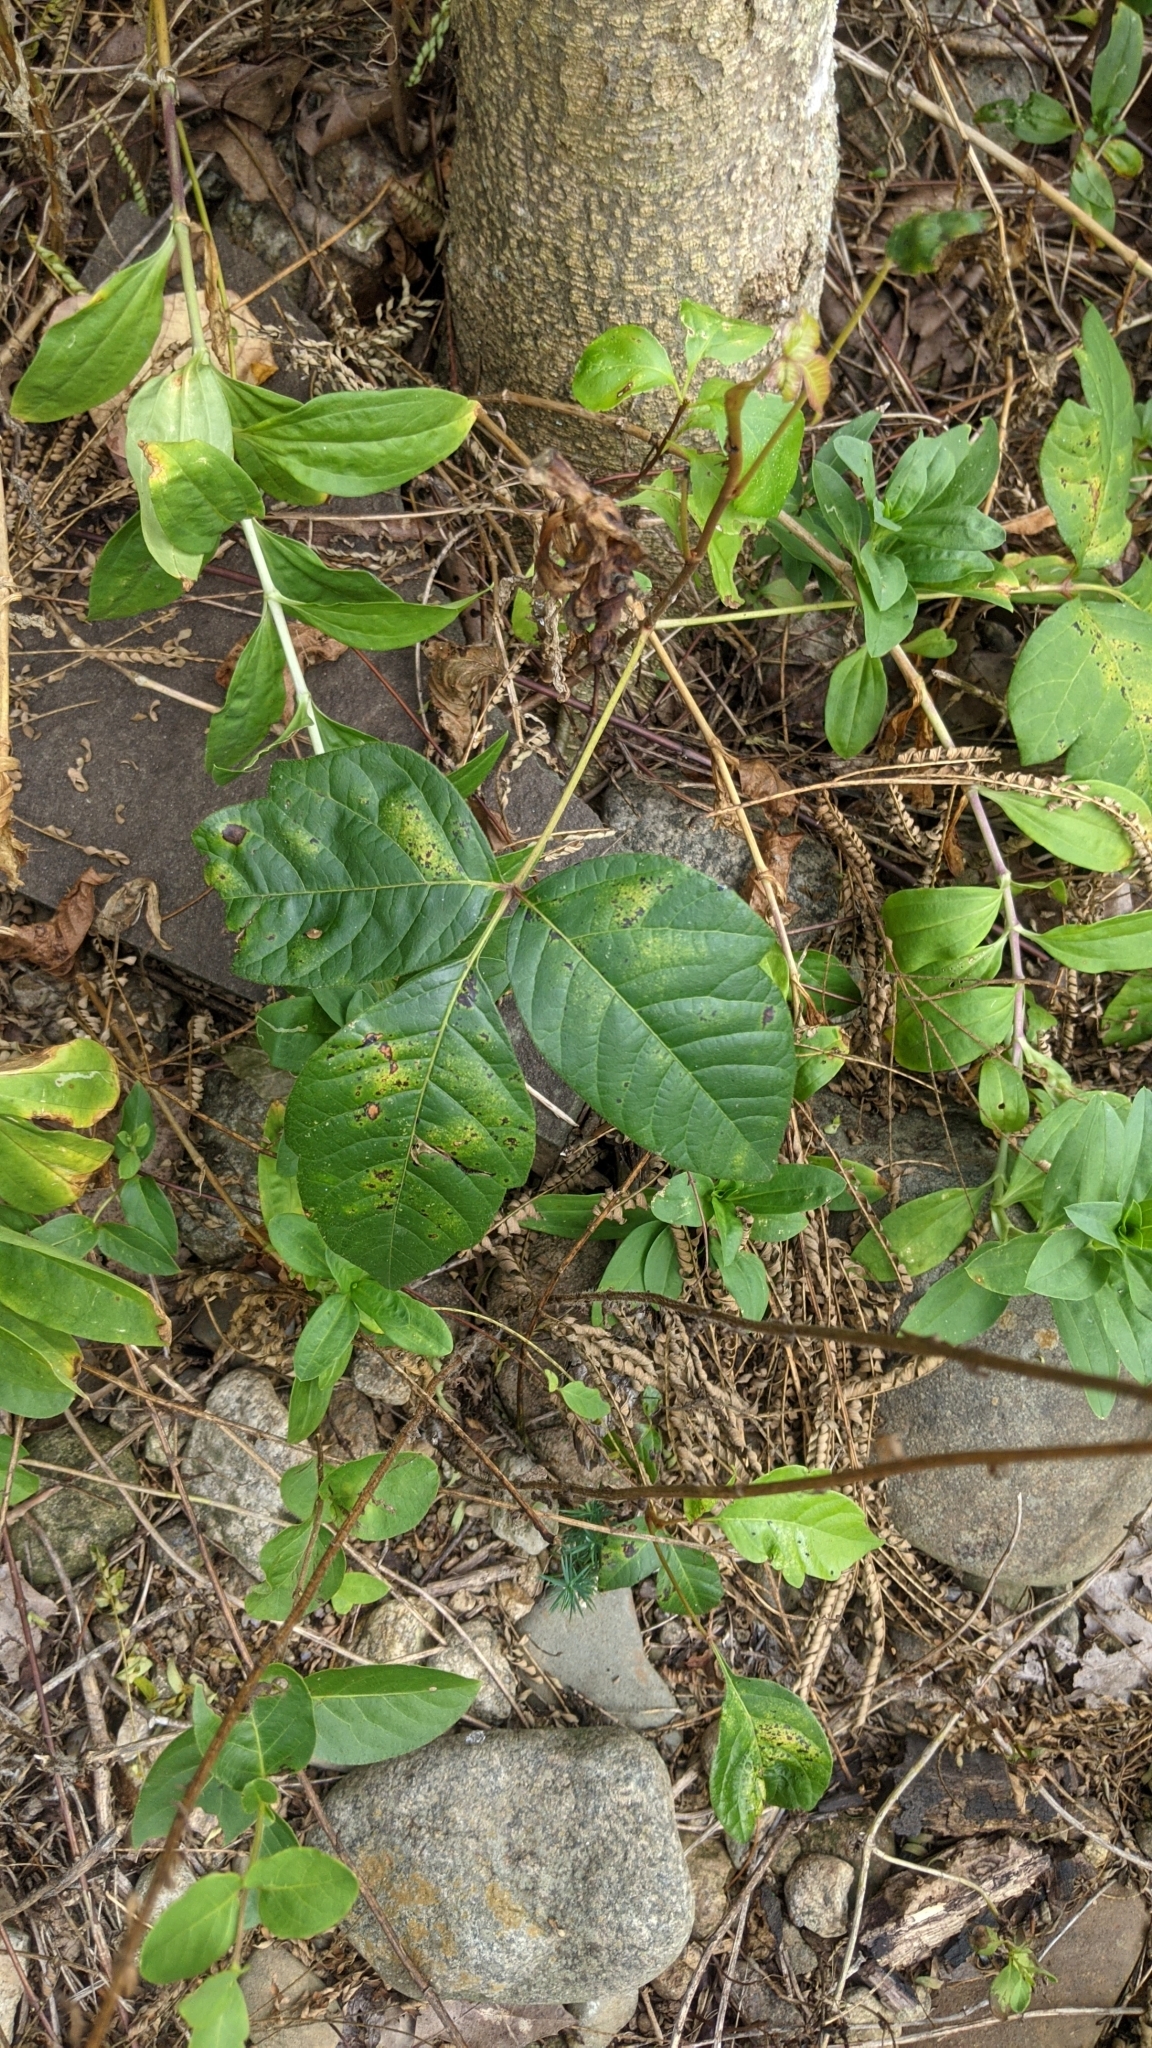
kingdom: Plantae
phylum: Tracheophyta
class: Magnoliopsida
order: Sapindales
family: Anacardiaceae
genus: Toxicodendron
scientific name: Toxicodendron radicans
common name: Poison ivy
